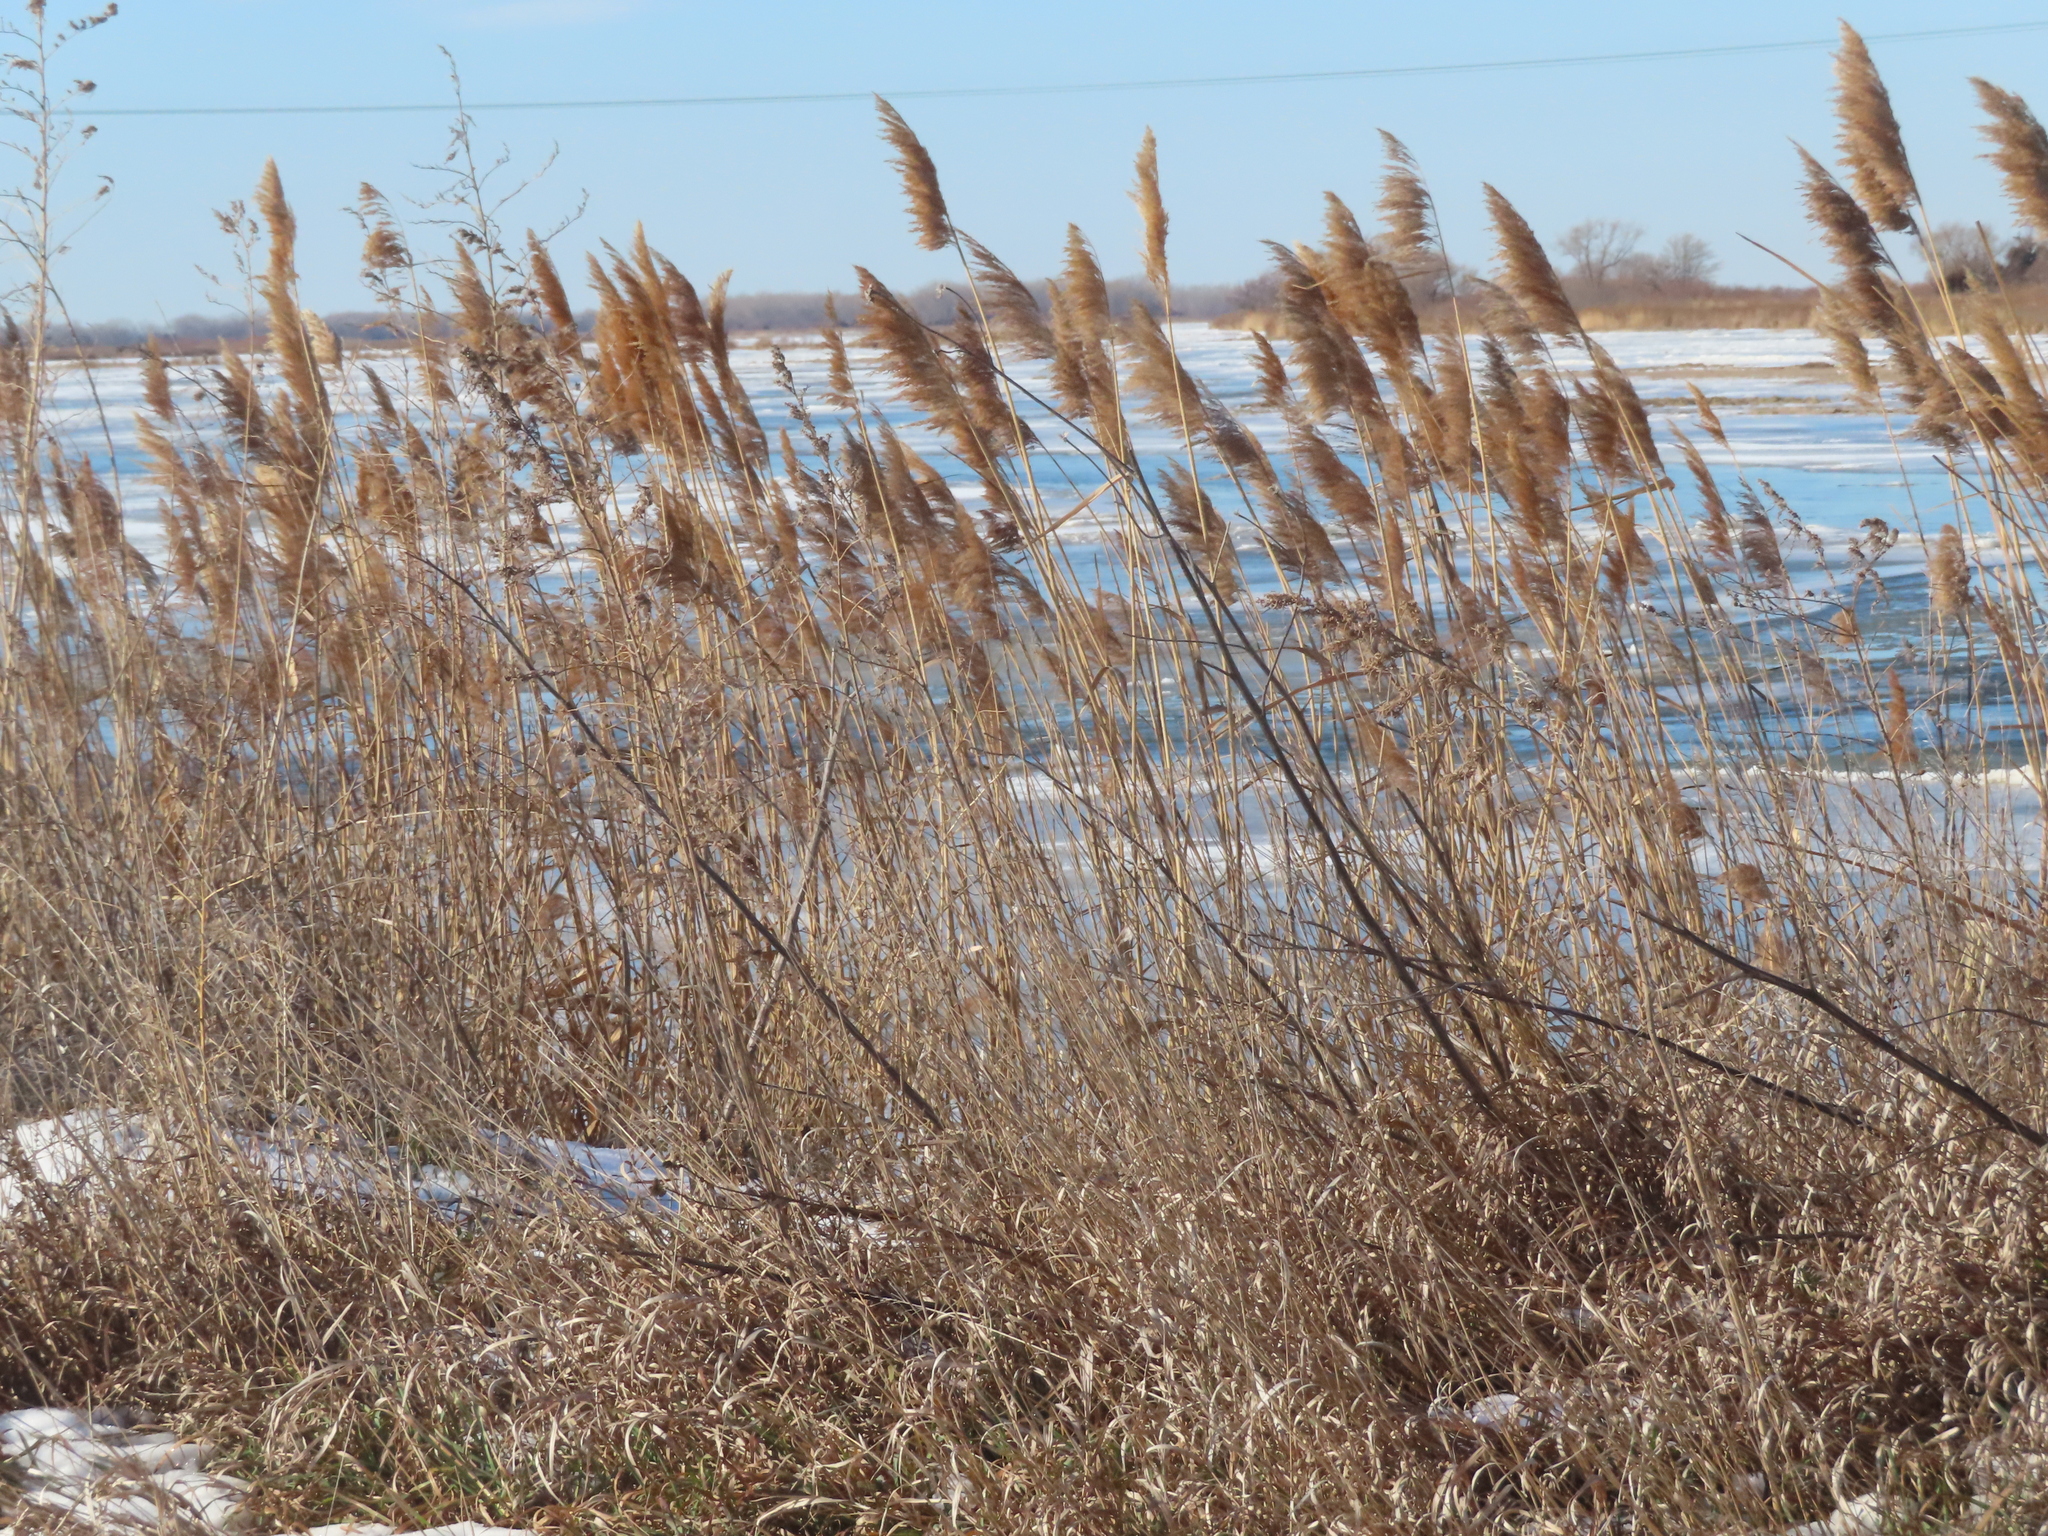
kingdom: Plantae
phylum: Tracheophyta
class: Liliopsida
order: Poales
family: Poaceae
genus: Phragmites
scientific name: Phragmites australis
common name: Common reed
